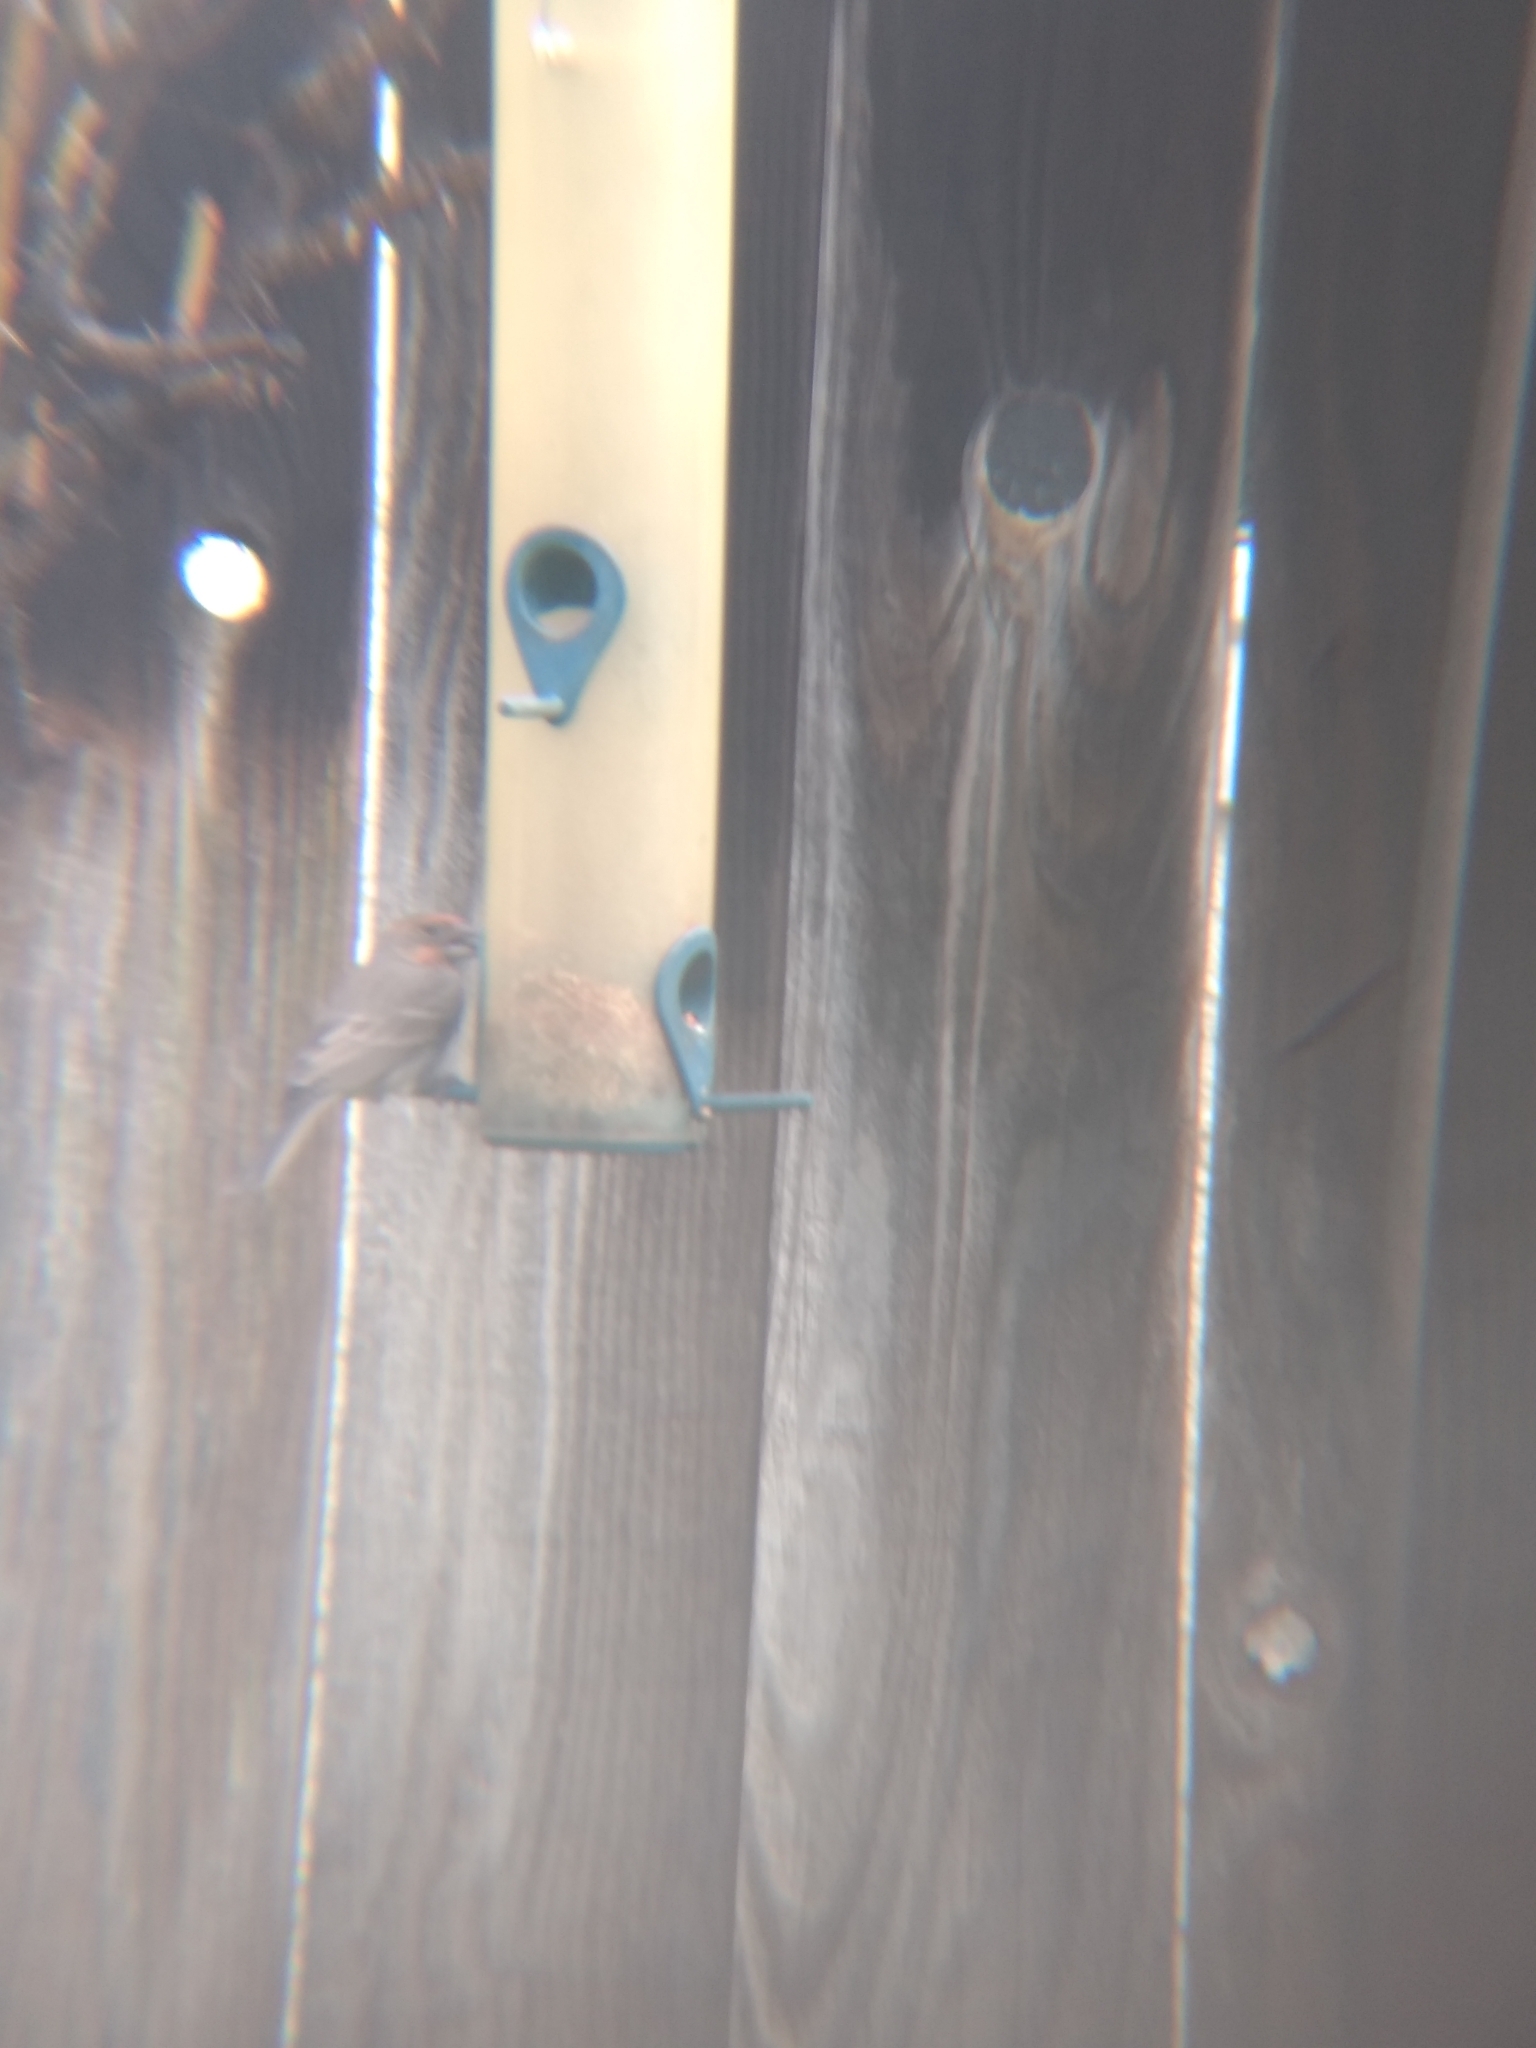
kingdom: Animalia
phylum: Chordata
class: Aves
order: Passeriformes
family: Fringillidae
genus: Haemorhous
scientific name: Haemorhous mexicanus
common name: House finch
